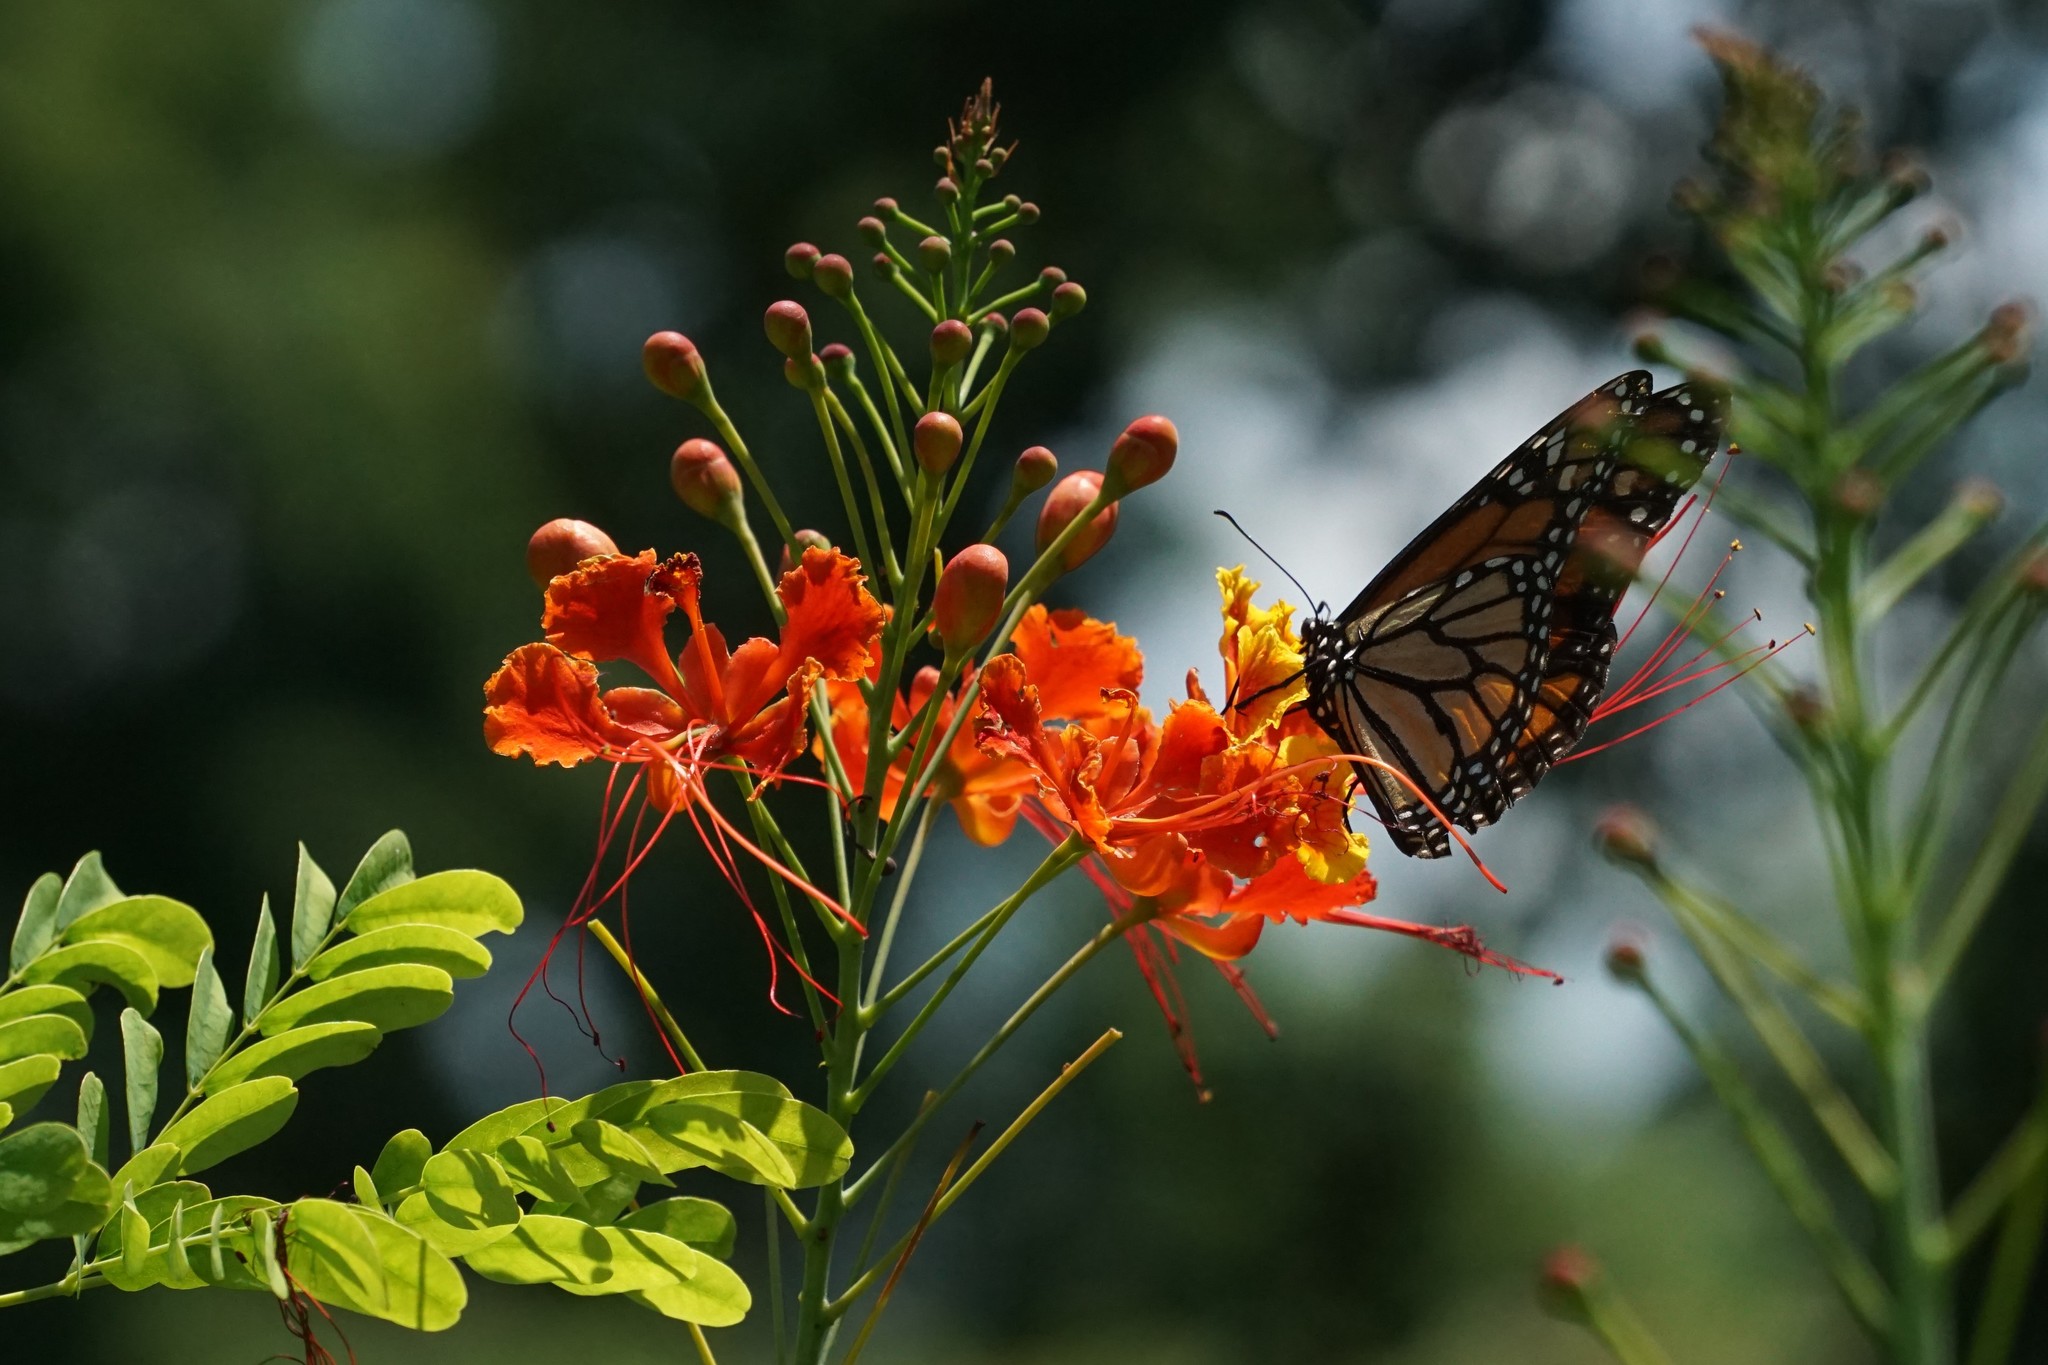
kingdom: Animalia
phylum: Arthropoda
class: Insecta
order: Lepidoptera
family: Nymphalidae
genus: Danaus
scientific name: Danaus plexippus
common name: Monarch
